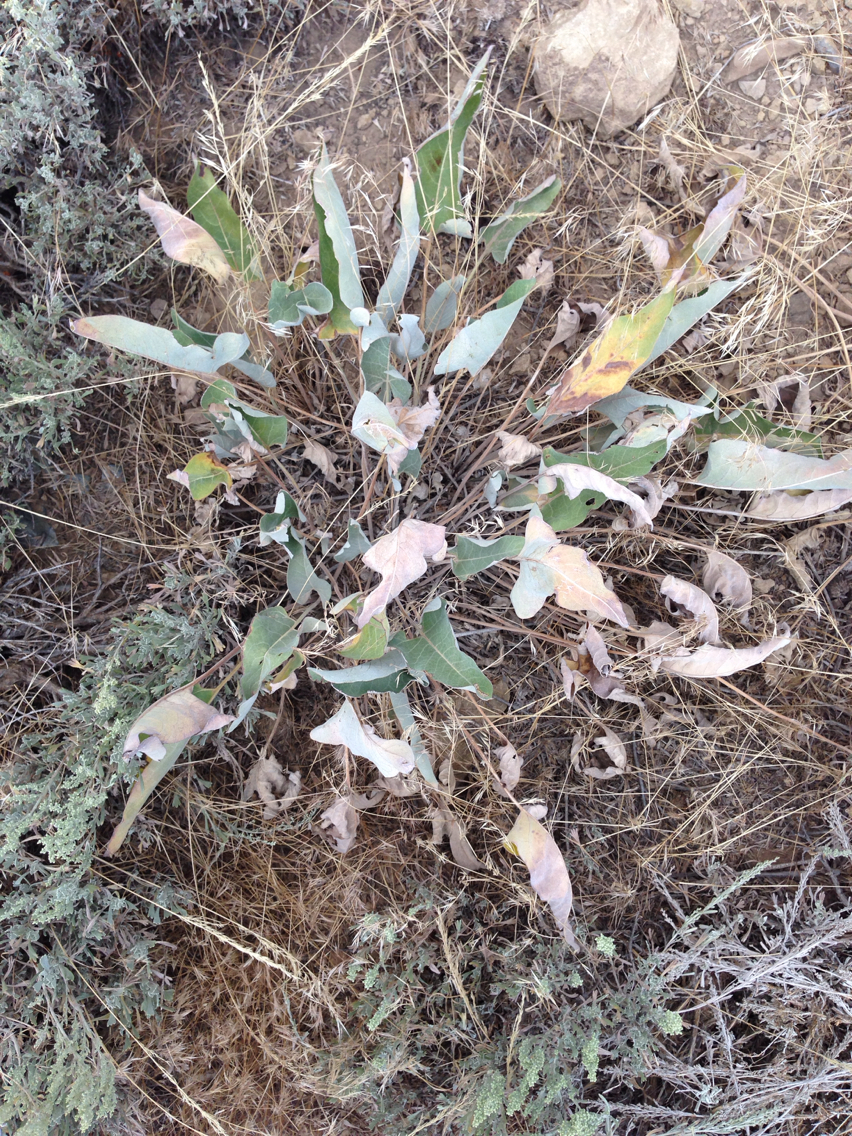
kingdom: Plantae
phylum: Tracheophyta
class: Magnoliopsida
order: Asterales
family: Asteraceae
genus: Wyethia
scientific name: Wyethia sagittata
